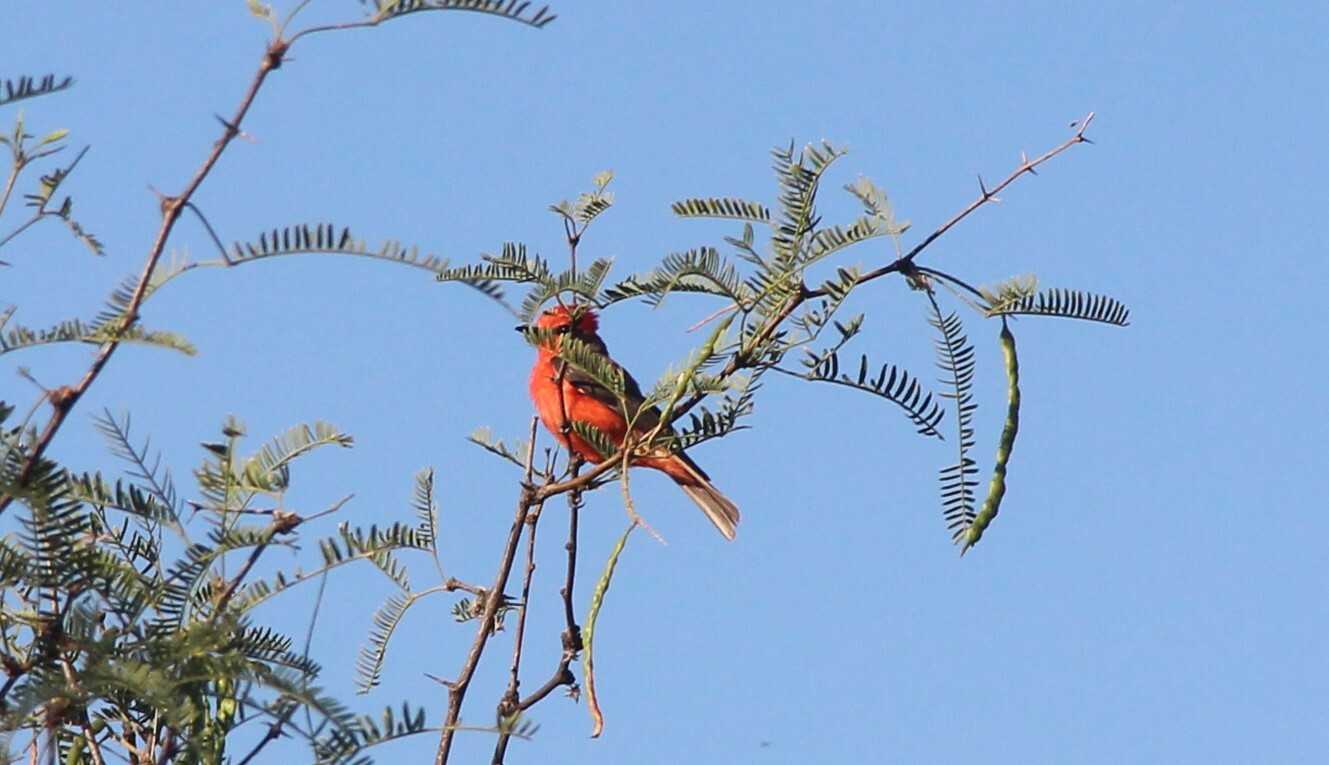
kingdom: Animalia
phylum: Chordata
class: Aves
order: Passeriformes
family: Tyrannidae
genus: Pyrocephalus
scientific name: Pyrocephalus rubinus
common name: Vermilion flycatcher
